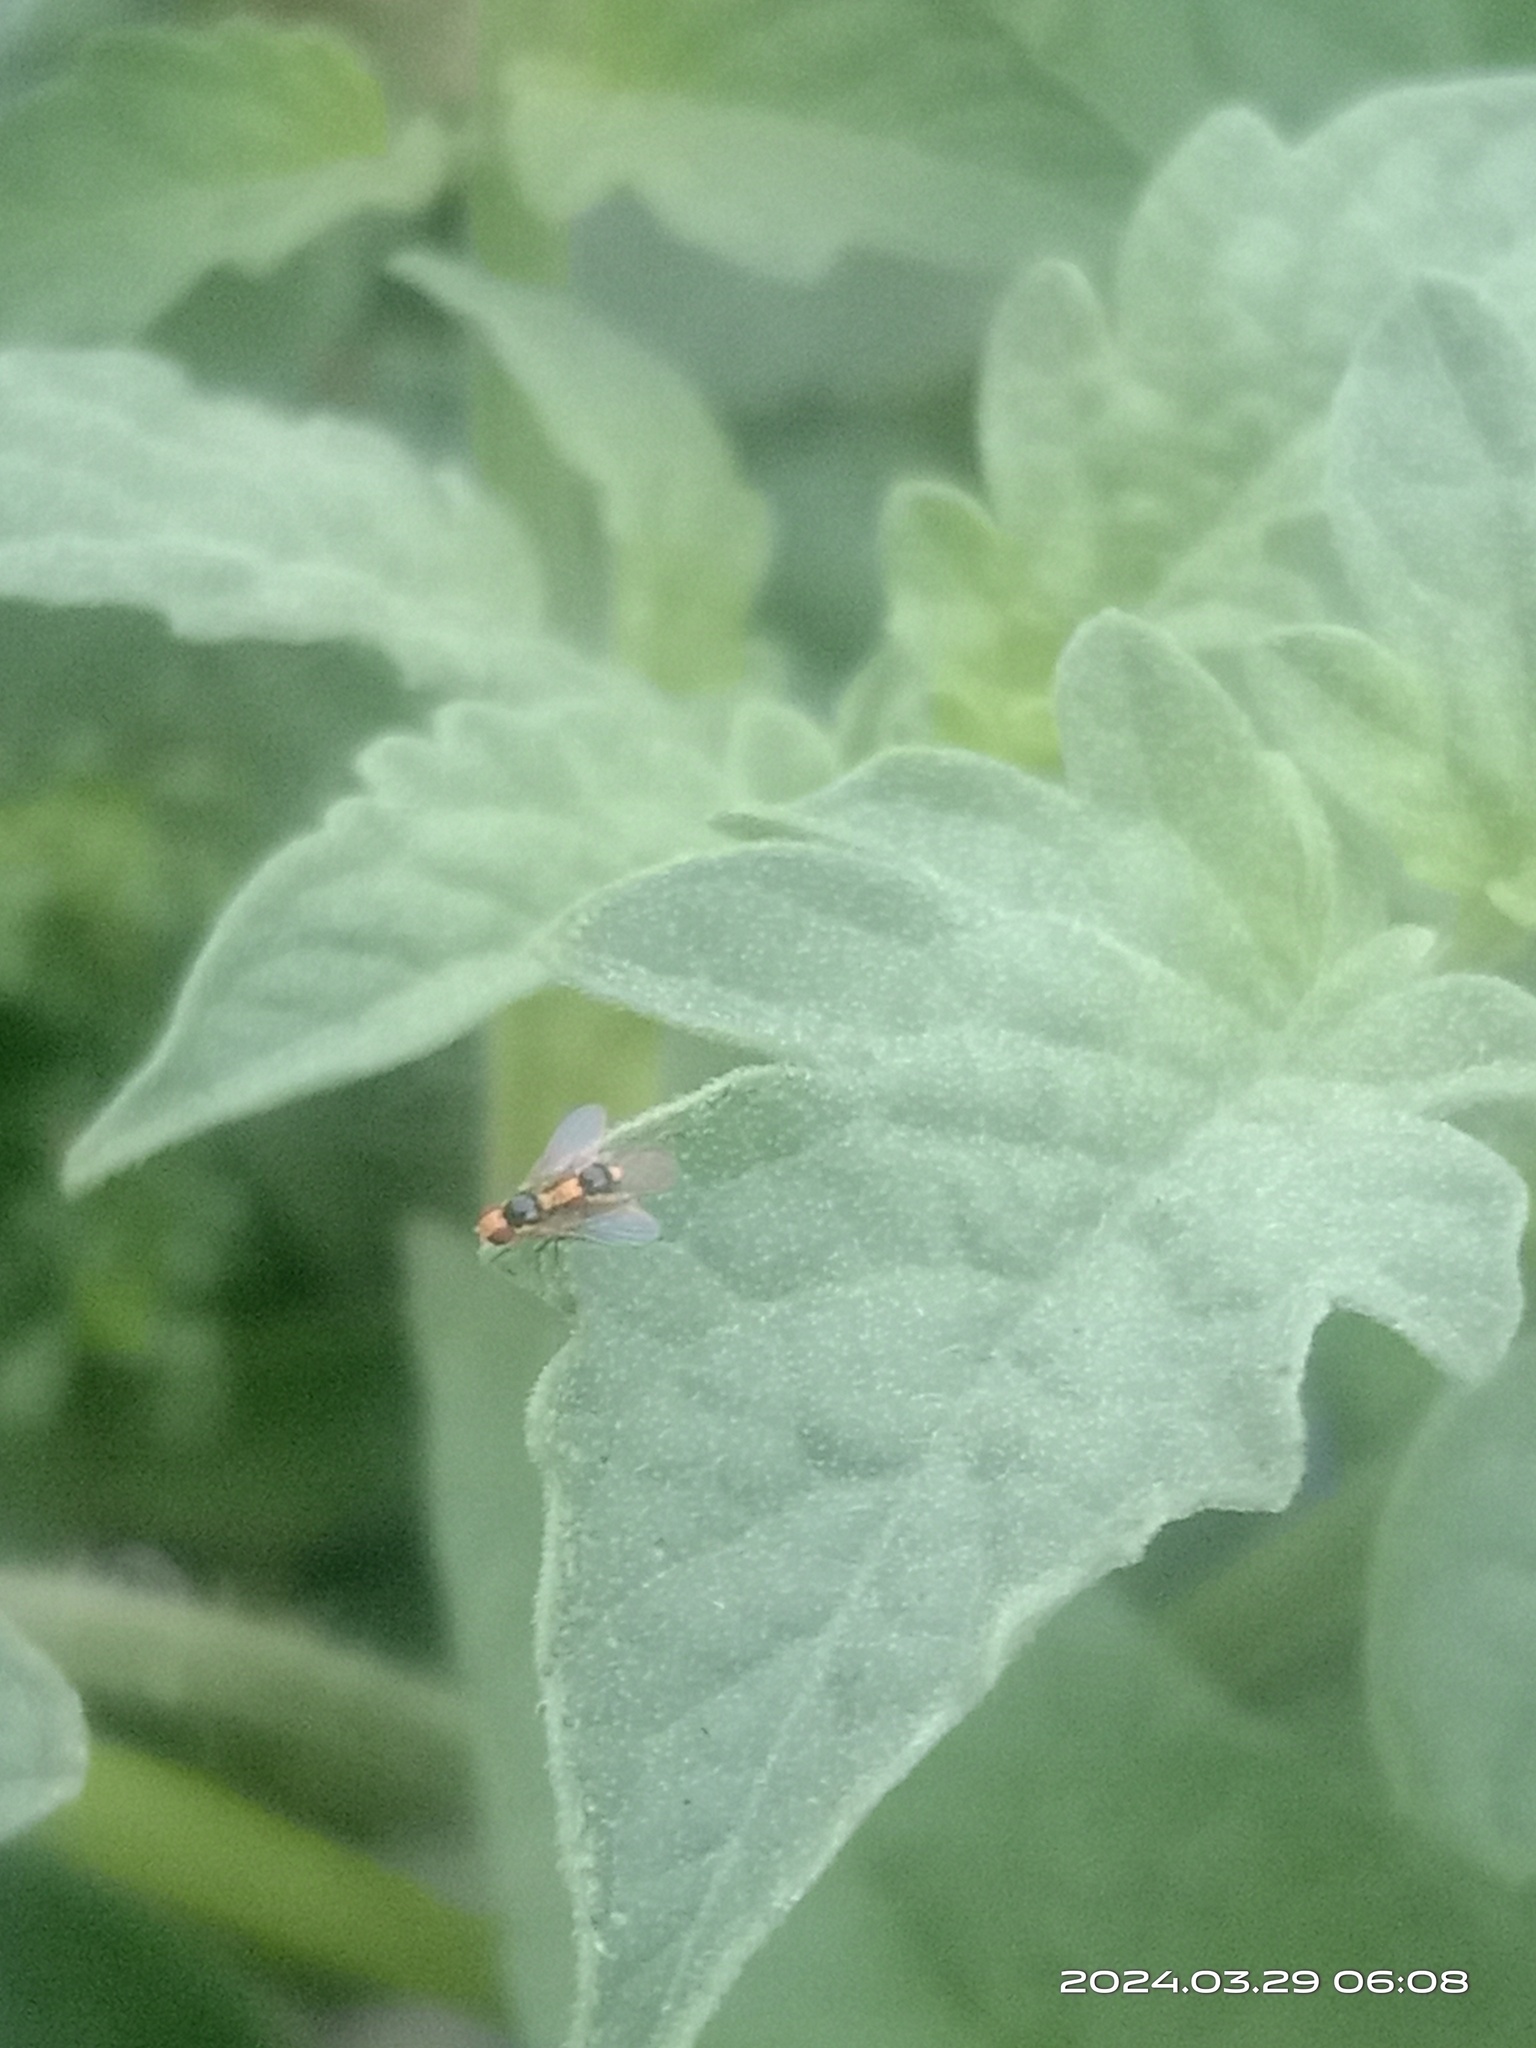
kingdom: Animalia
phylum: Arthropoda
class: Insecta
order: Diptera
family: Agromyzidae
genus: Liriomyza
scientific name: Liriomyza bryoniae
